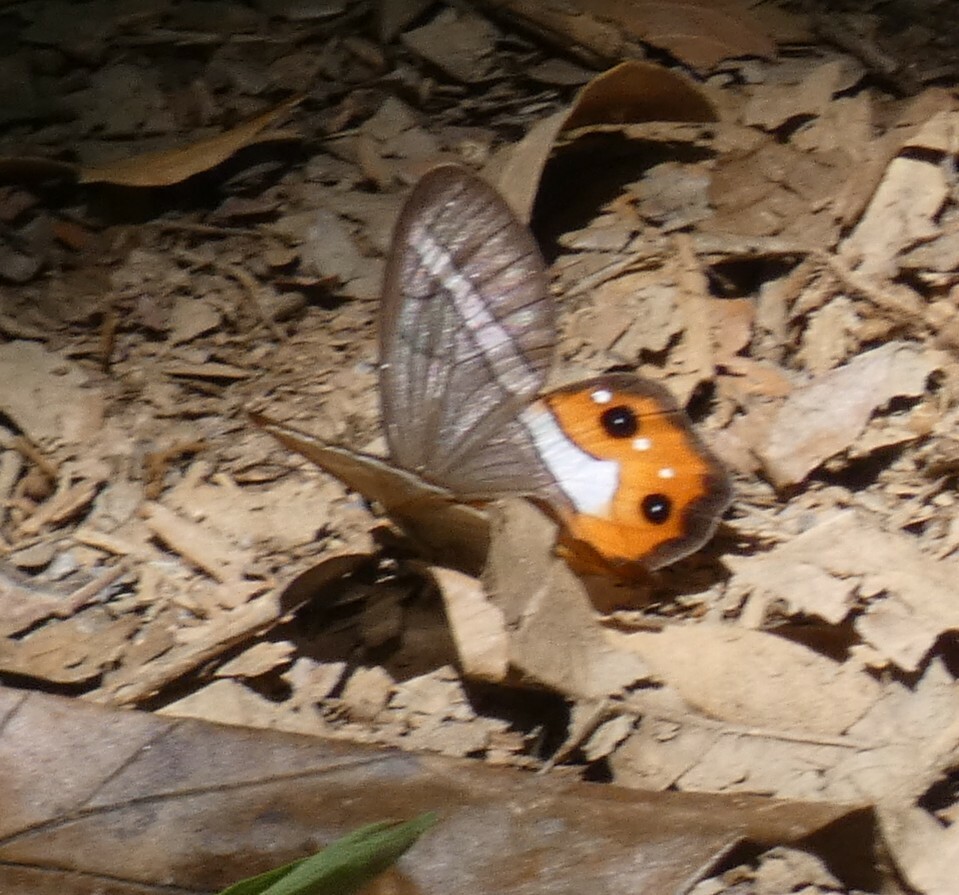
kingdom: Animalia
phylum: Arthropoda
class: Insecta
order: Lepidoptera
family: Nymphalidae
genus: Pierella
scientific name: Pierella nereis
